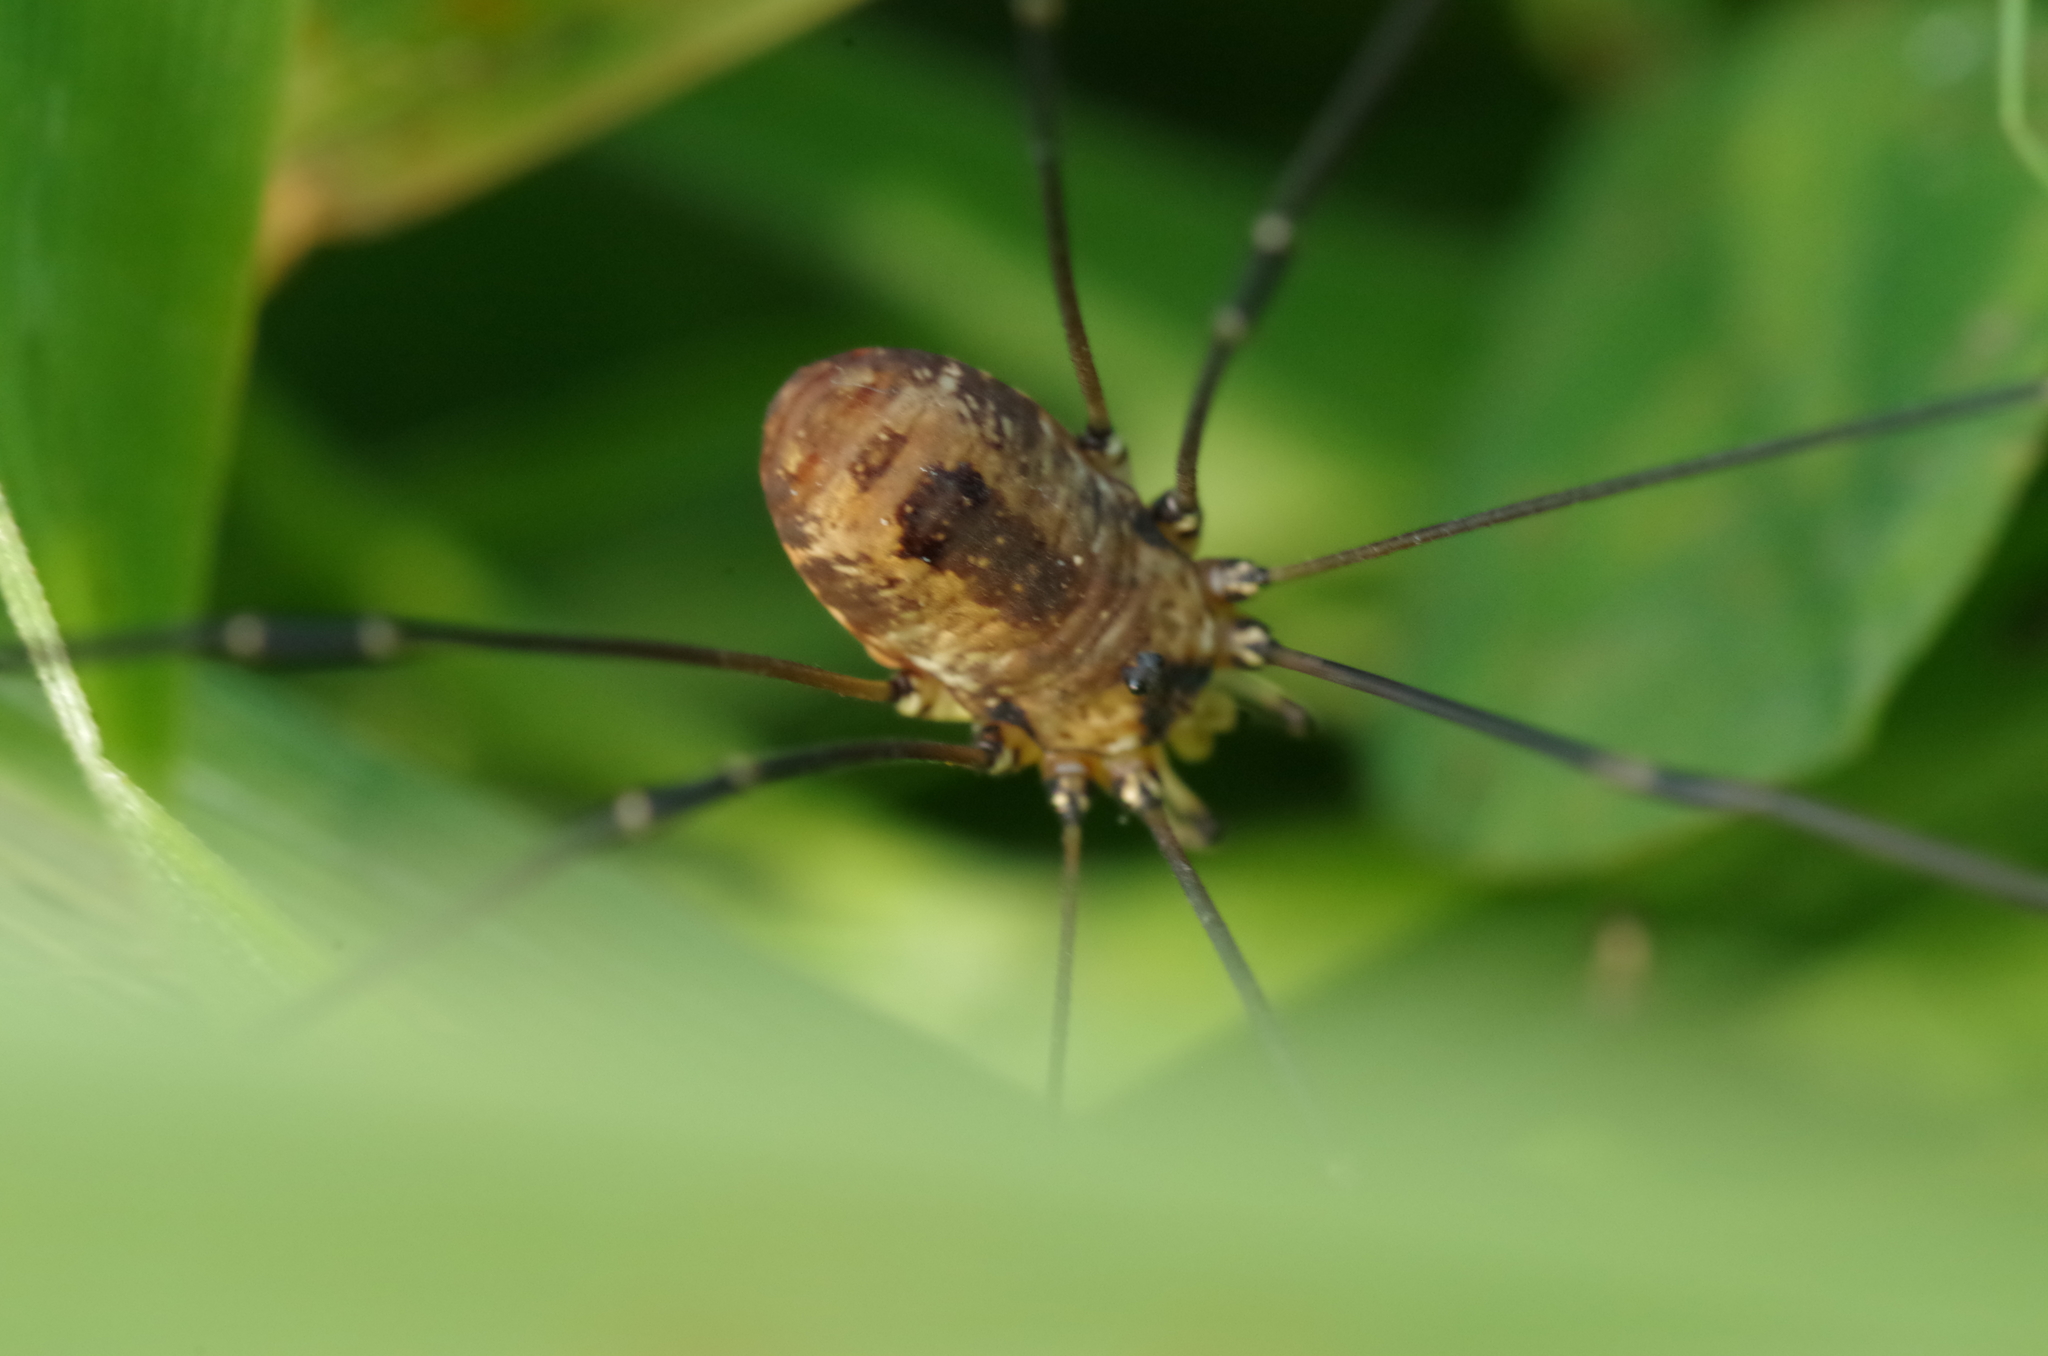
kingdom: Animalia
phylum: Arthropoda
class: Arachnida
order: Opiliones
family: Sclerosomatidae
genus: Leiobunum
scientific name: Leiobunum rotundum
